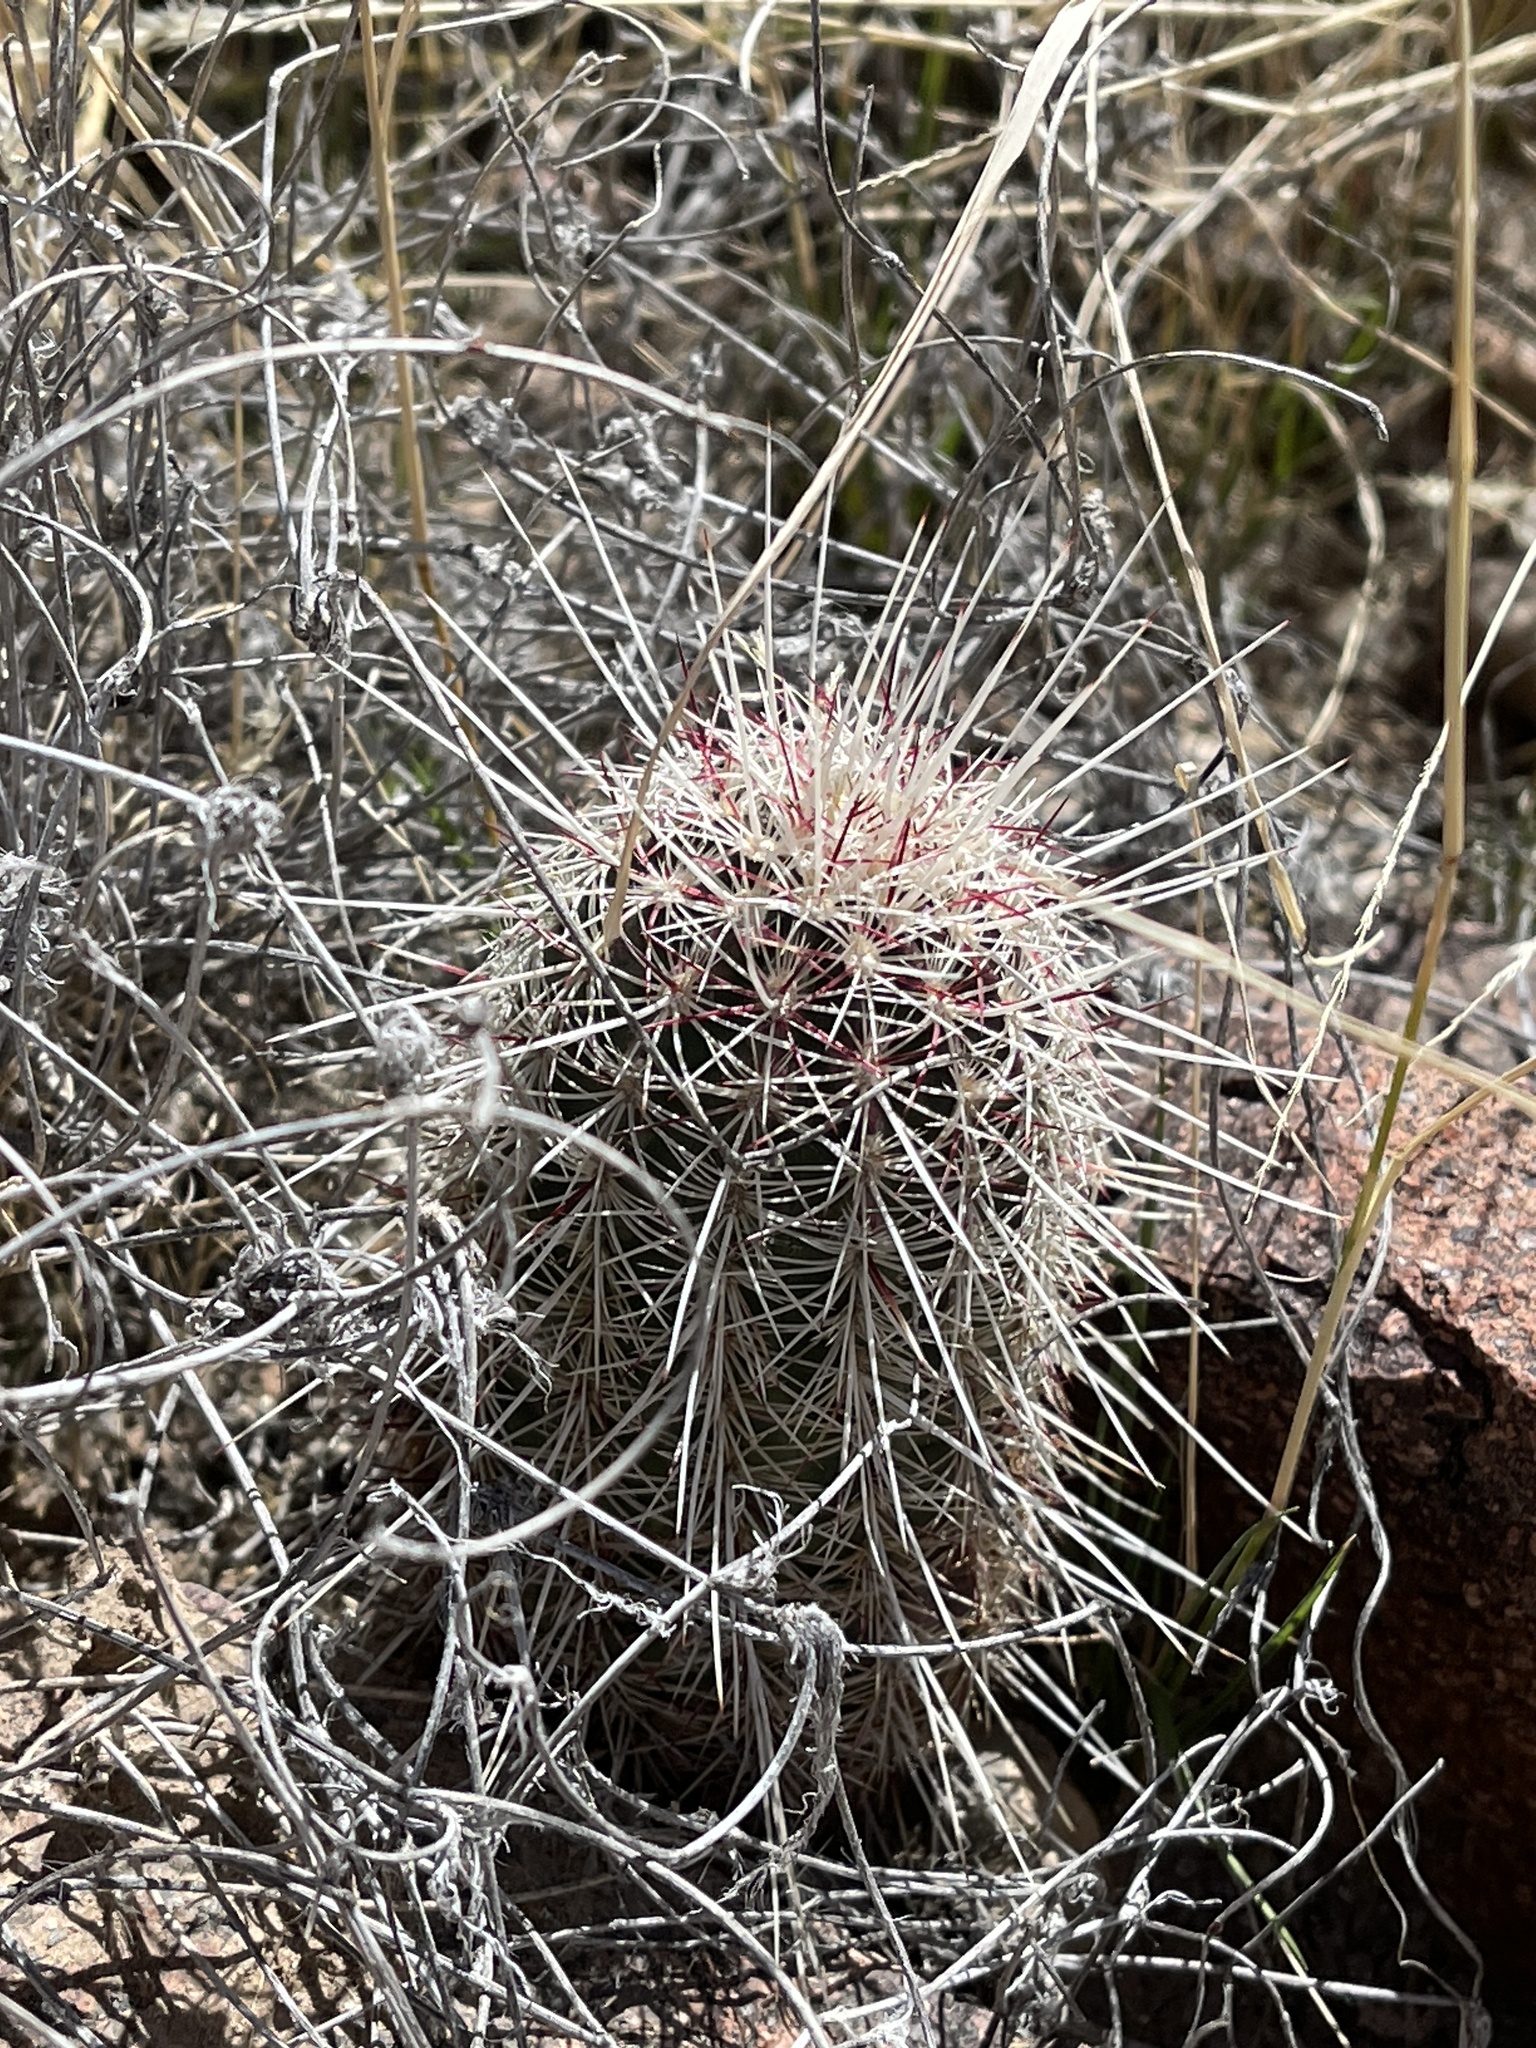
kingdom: Plantae
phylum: Tracheophyta
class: Magnoliopsida
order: Caryophyllales
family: Cactaceae
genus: Echinocereus
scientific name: Echinocereus viridiflorus
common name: Nylon hedgehog cactus
